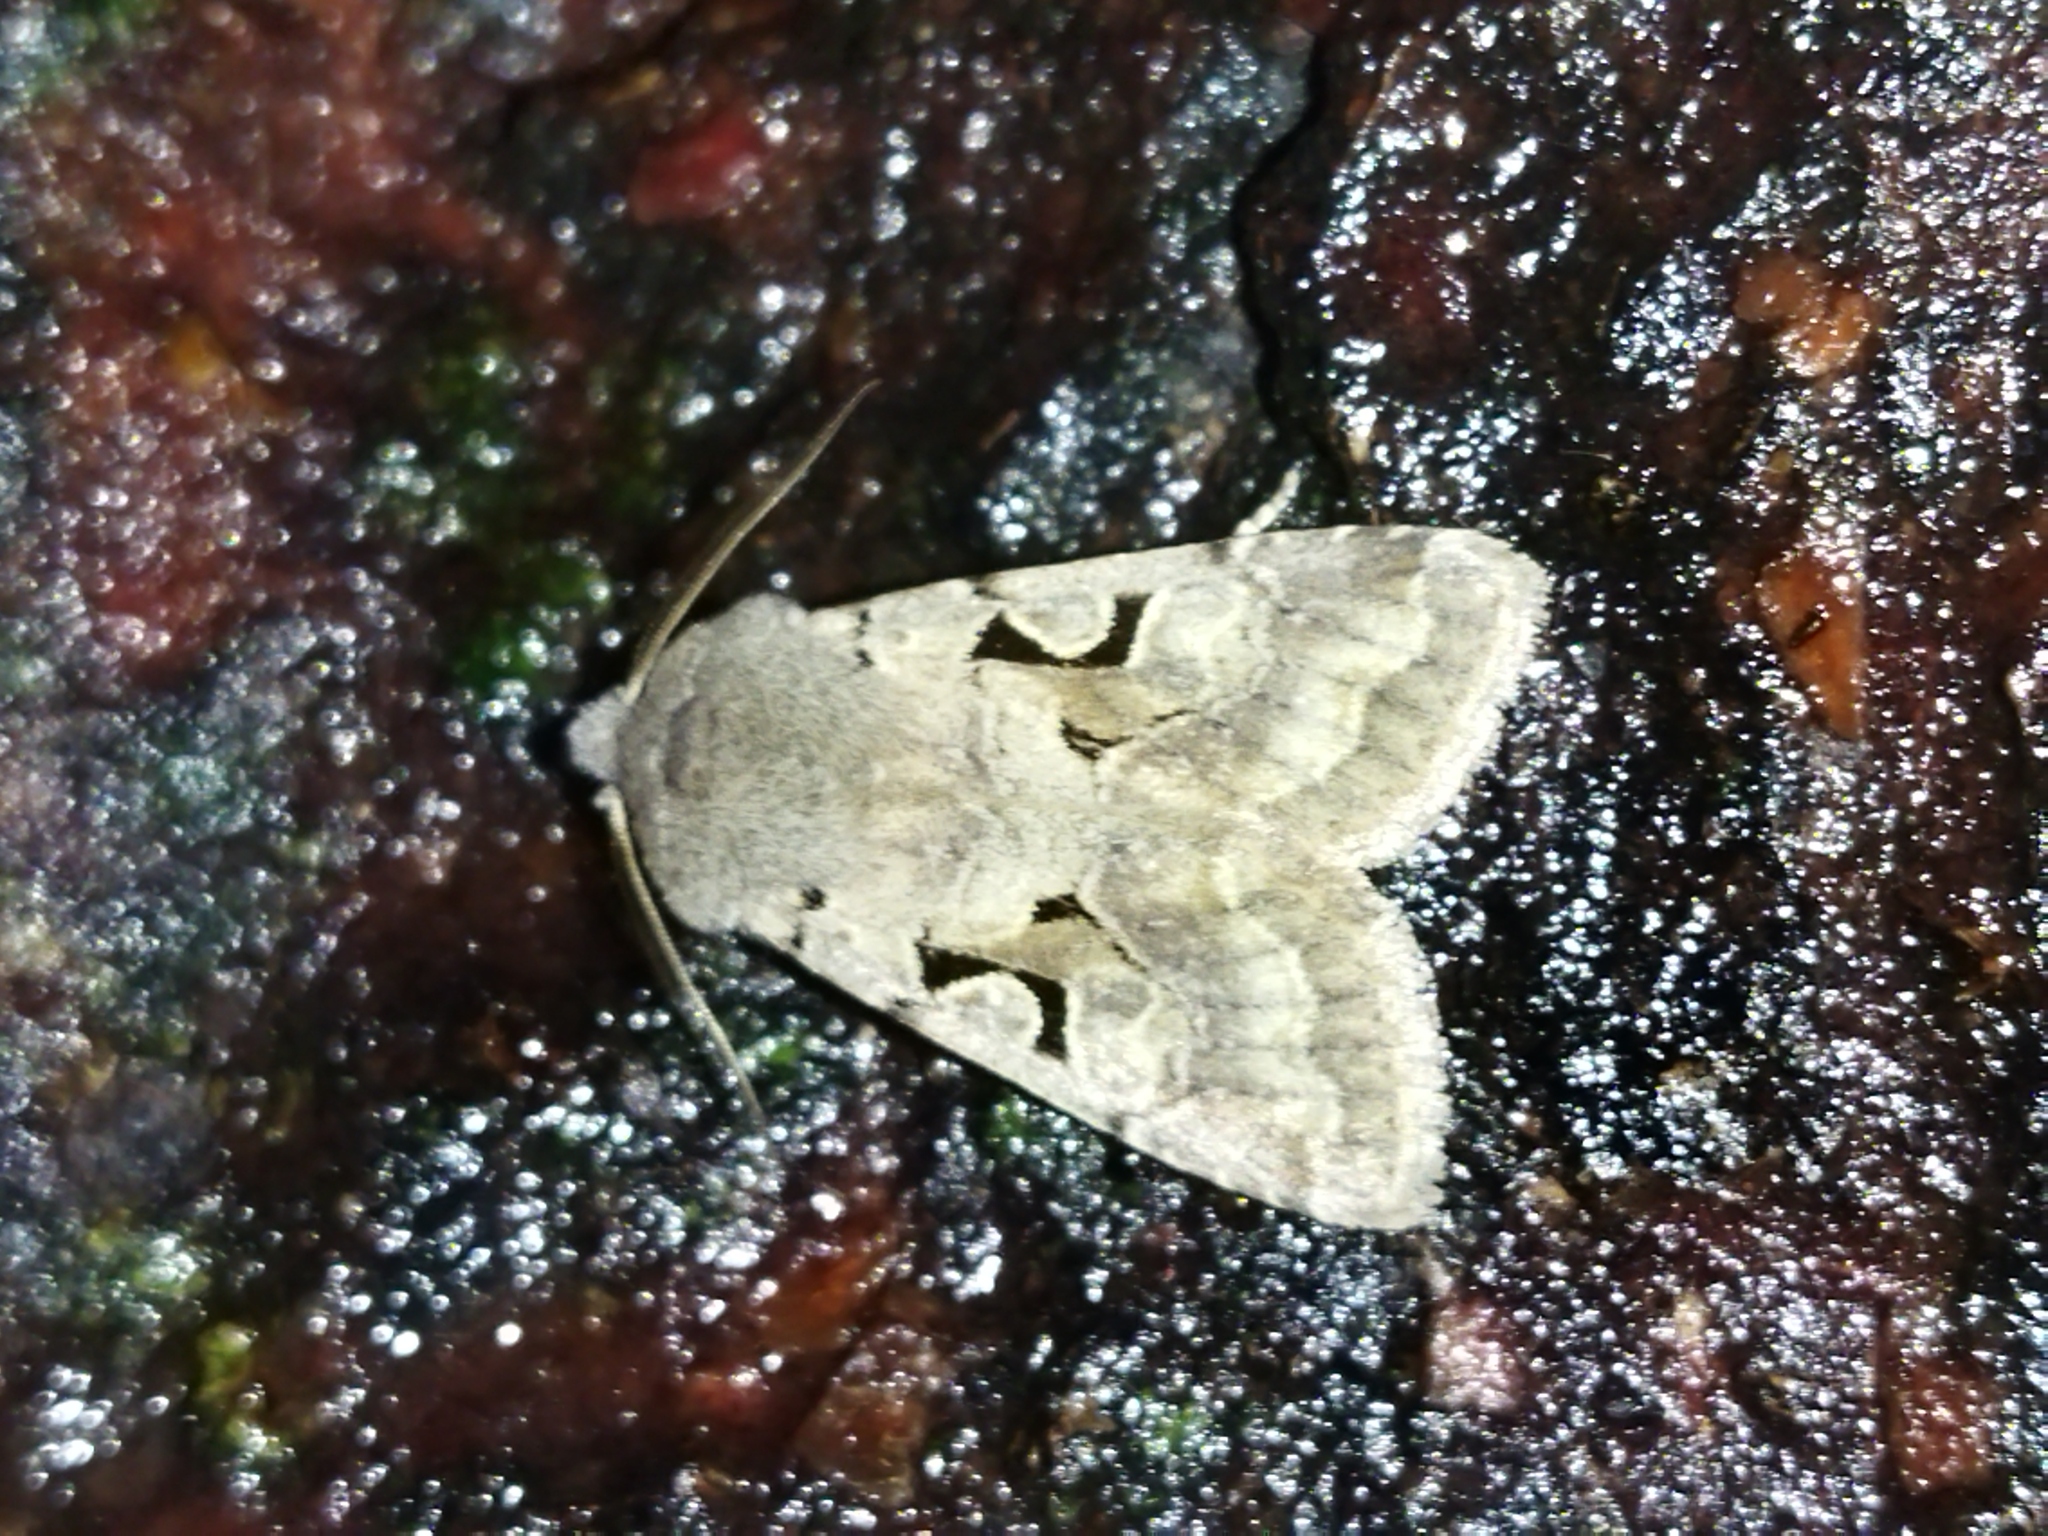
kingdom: Animalia
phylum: Arthropoda
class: Insecta
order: Lepidoptera
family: Noctuidae
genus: Orthosia
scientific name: Orthosia gothica
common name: Hebrew character
